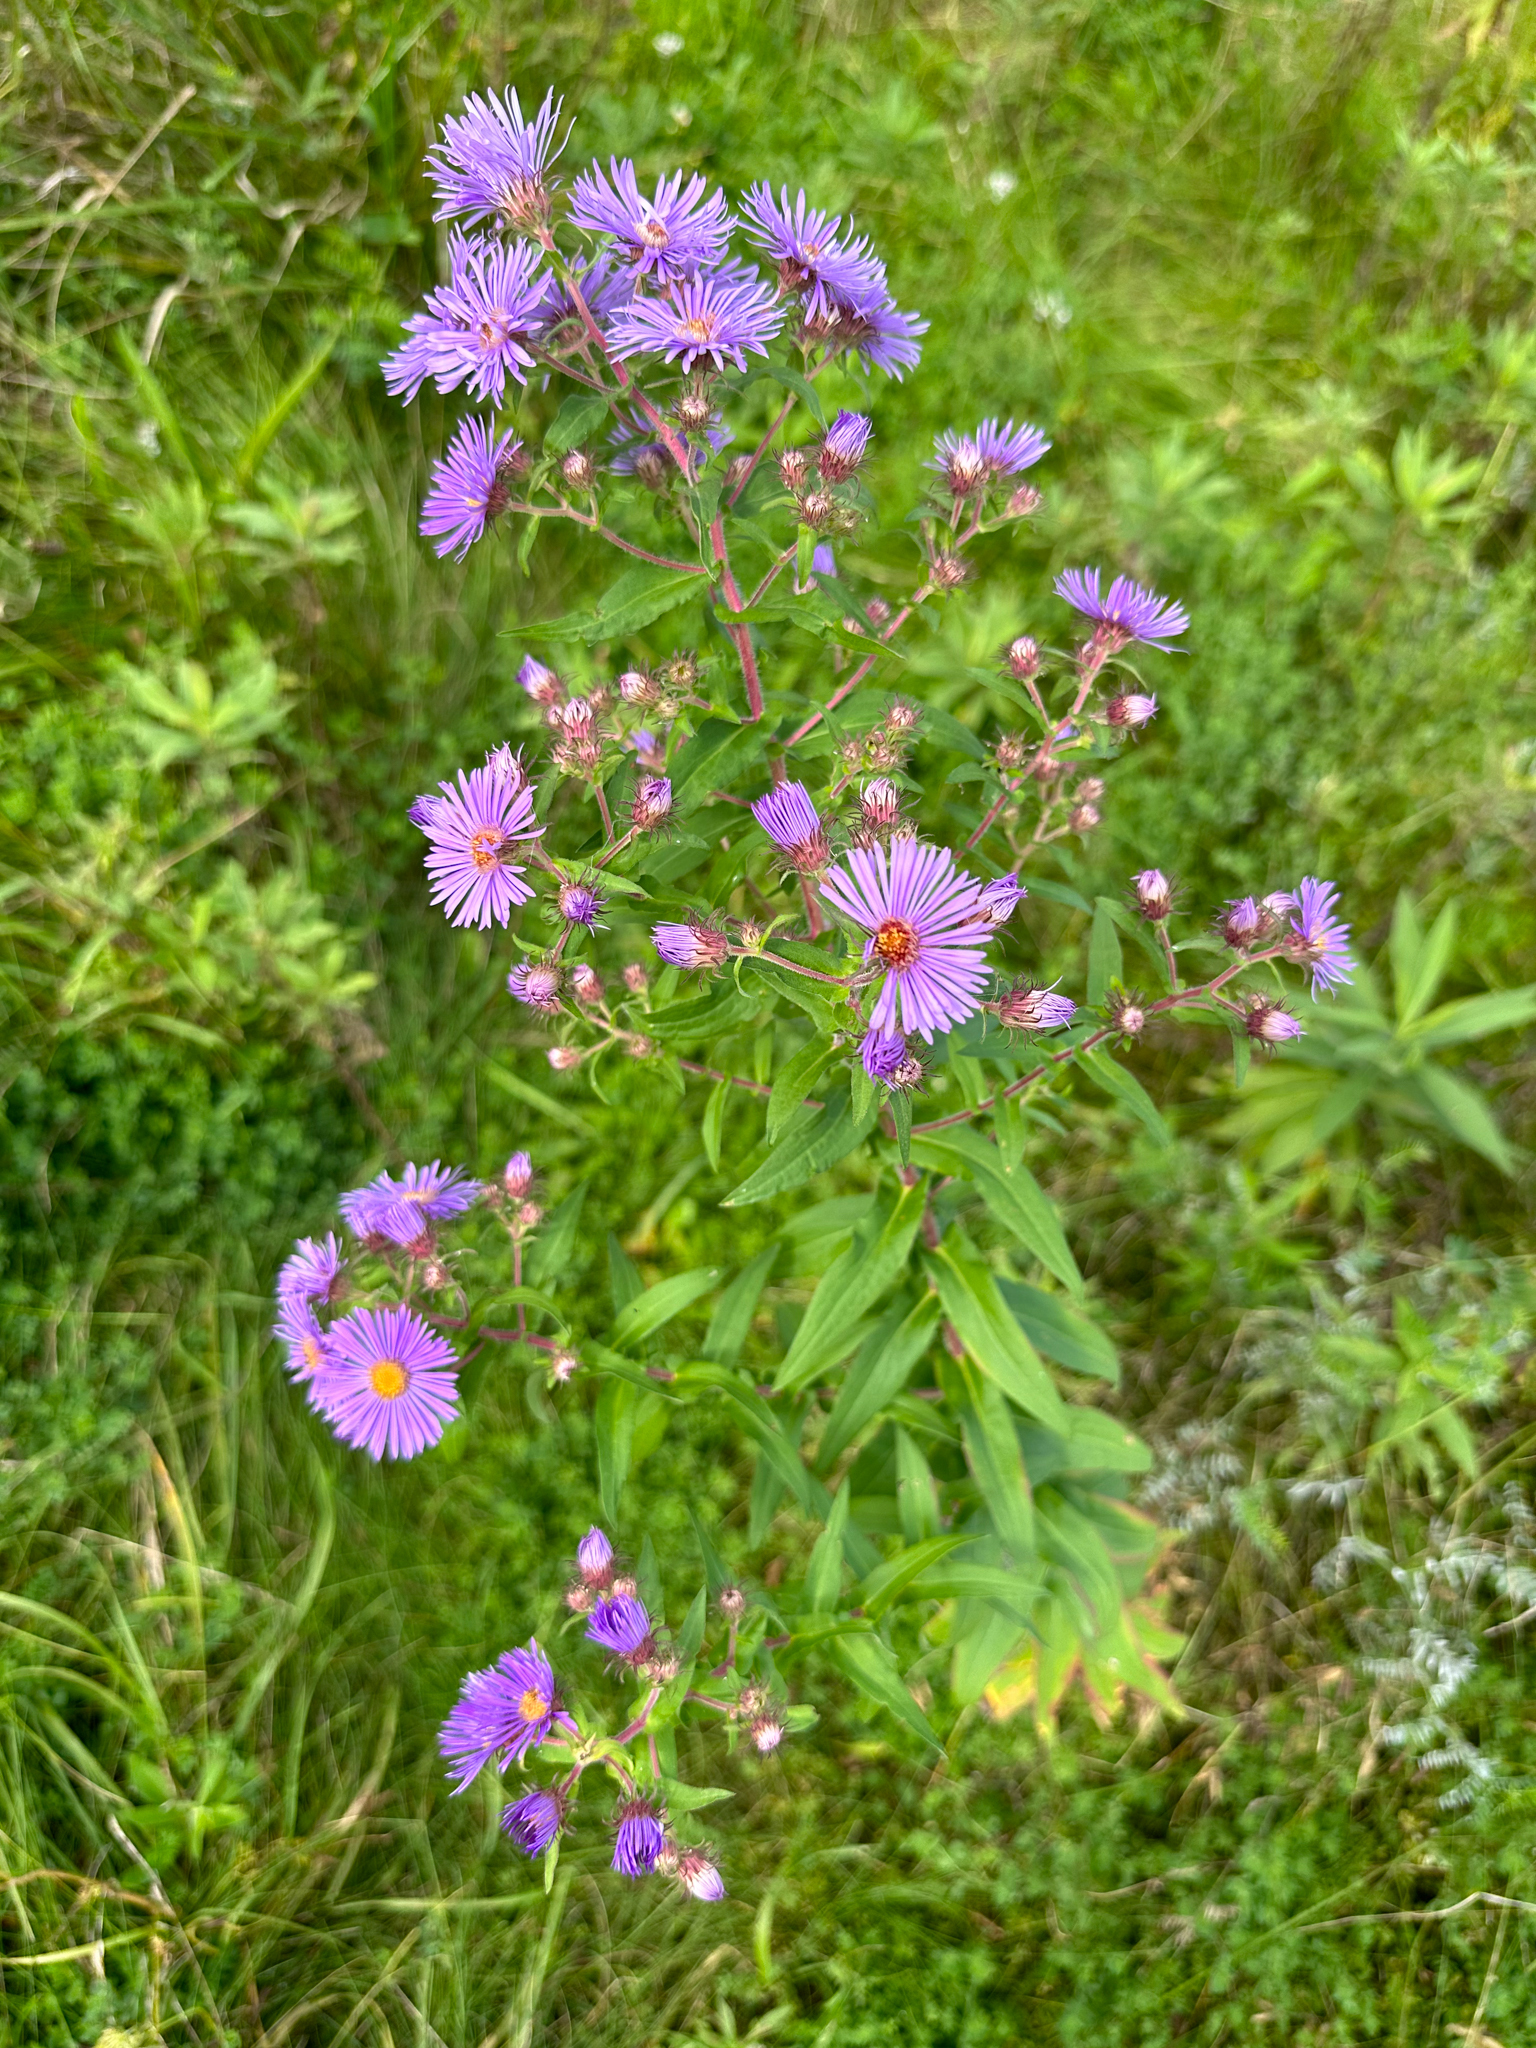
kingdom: Plantae
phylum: Tracheophyta
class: Magnoliopsida
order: Asterales
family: Asteraceae
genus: Symphyotrichum
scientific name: Symphyotrichum novae-angliae
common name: Michaelmas daisy
